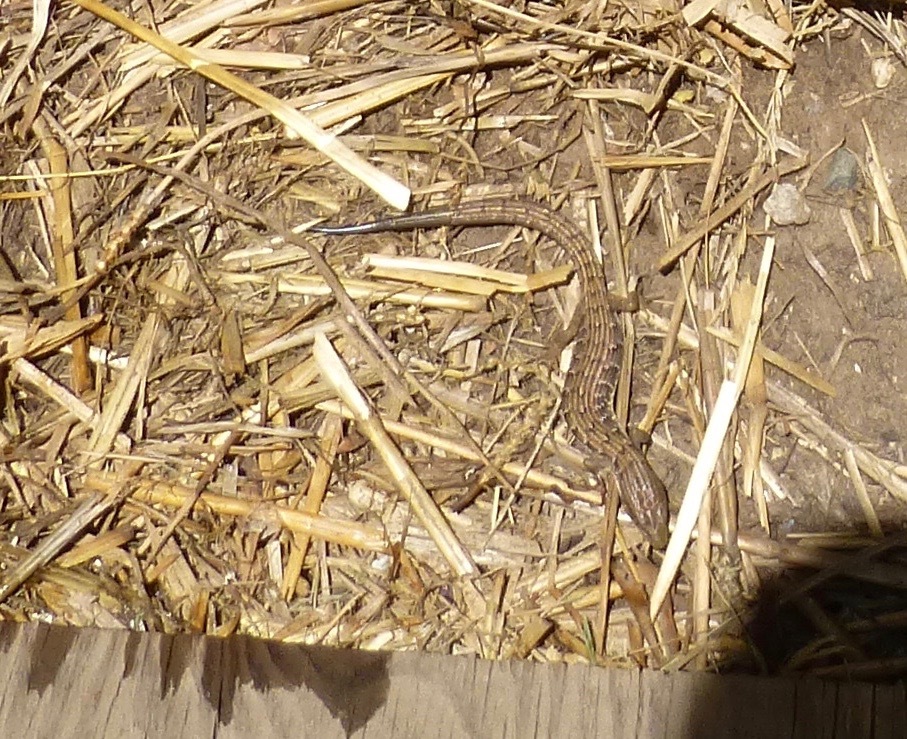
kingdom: Animalia
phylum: Chordata
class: Squamata
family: Anguidae
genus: Elgaria
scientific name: Elgaria multicarinata
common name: Southern alligator lizard
